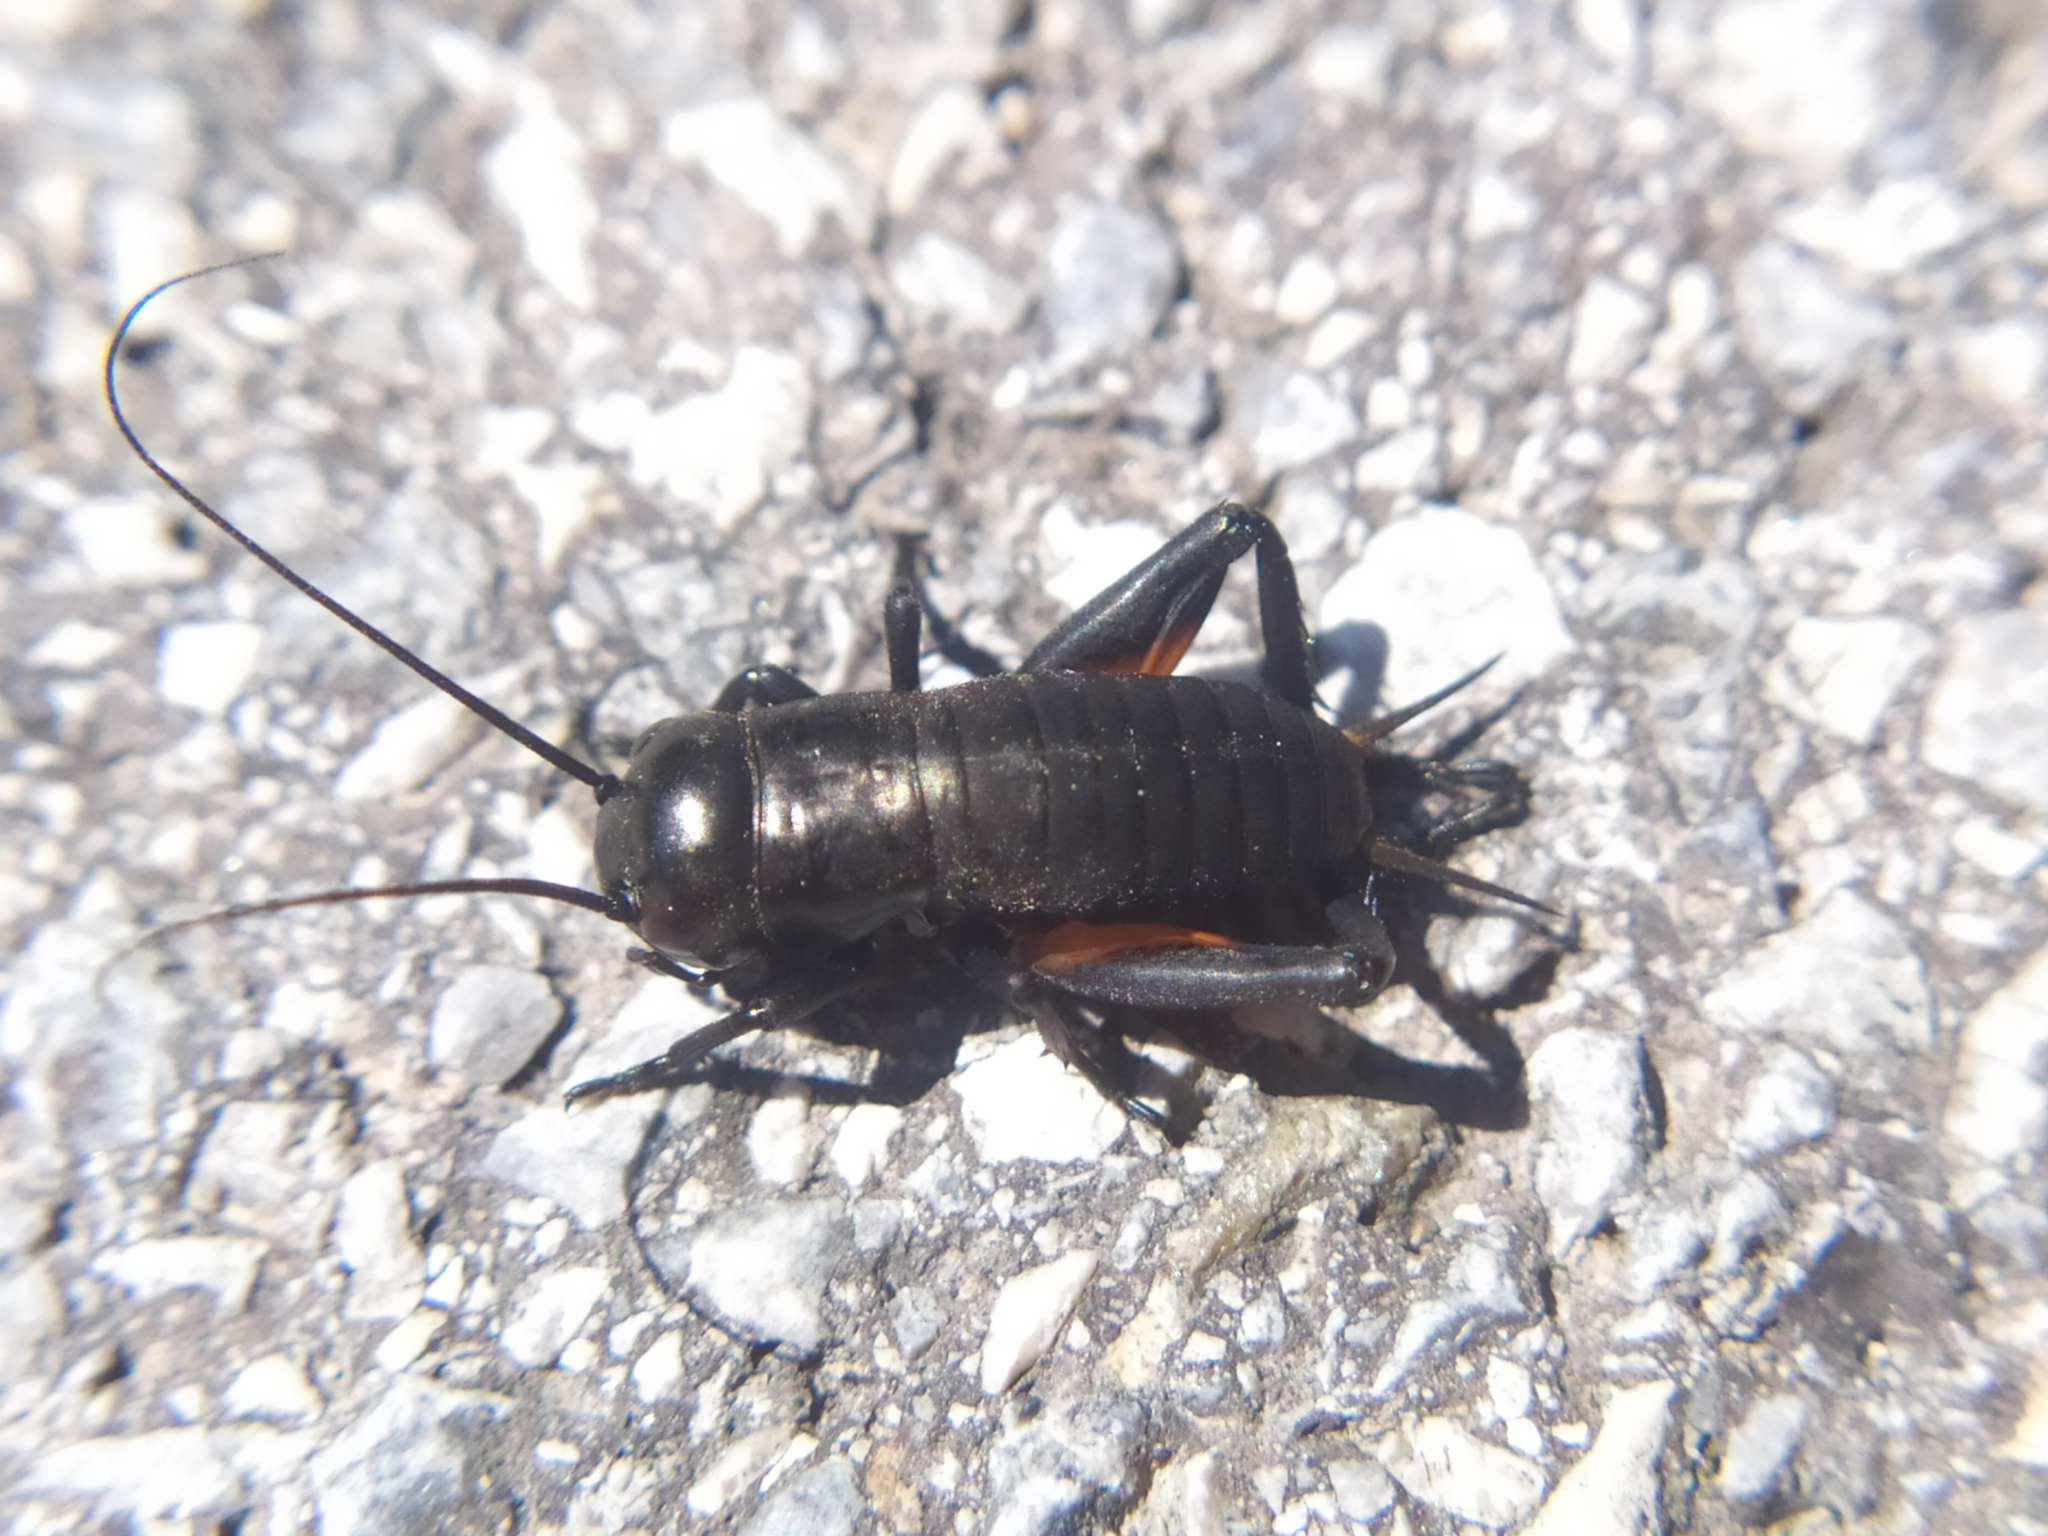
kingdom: Animalia
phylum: Arthropoda
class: Insecta
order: Orthoptera
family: Gryllidae
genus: Gryllus
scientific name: Gryllus campestris
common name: Field cricket
